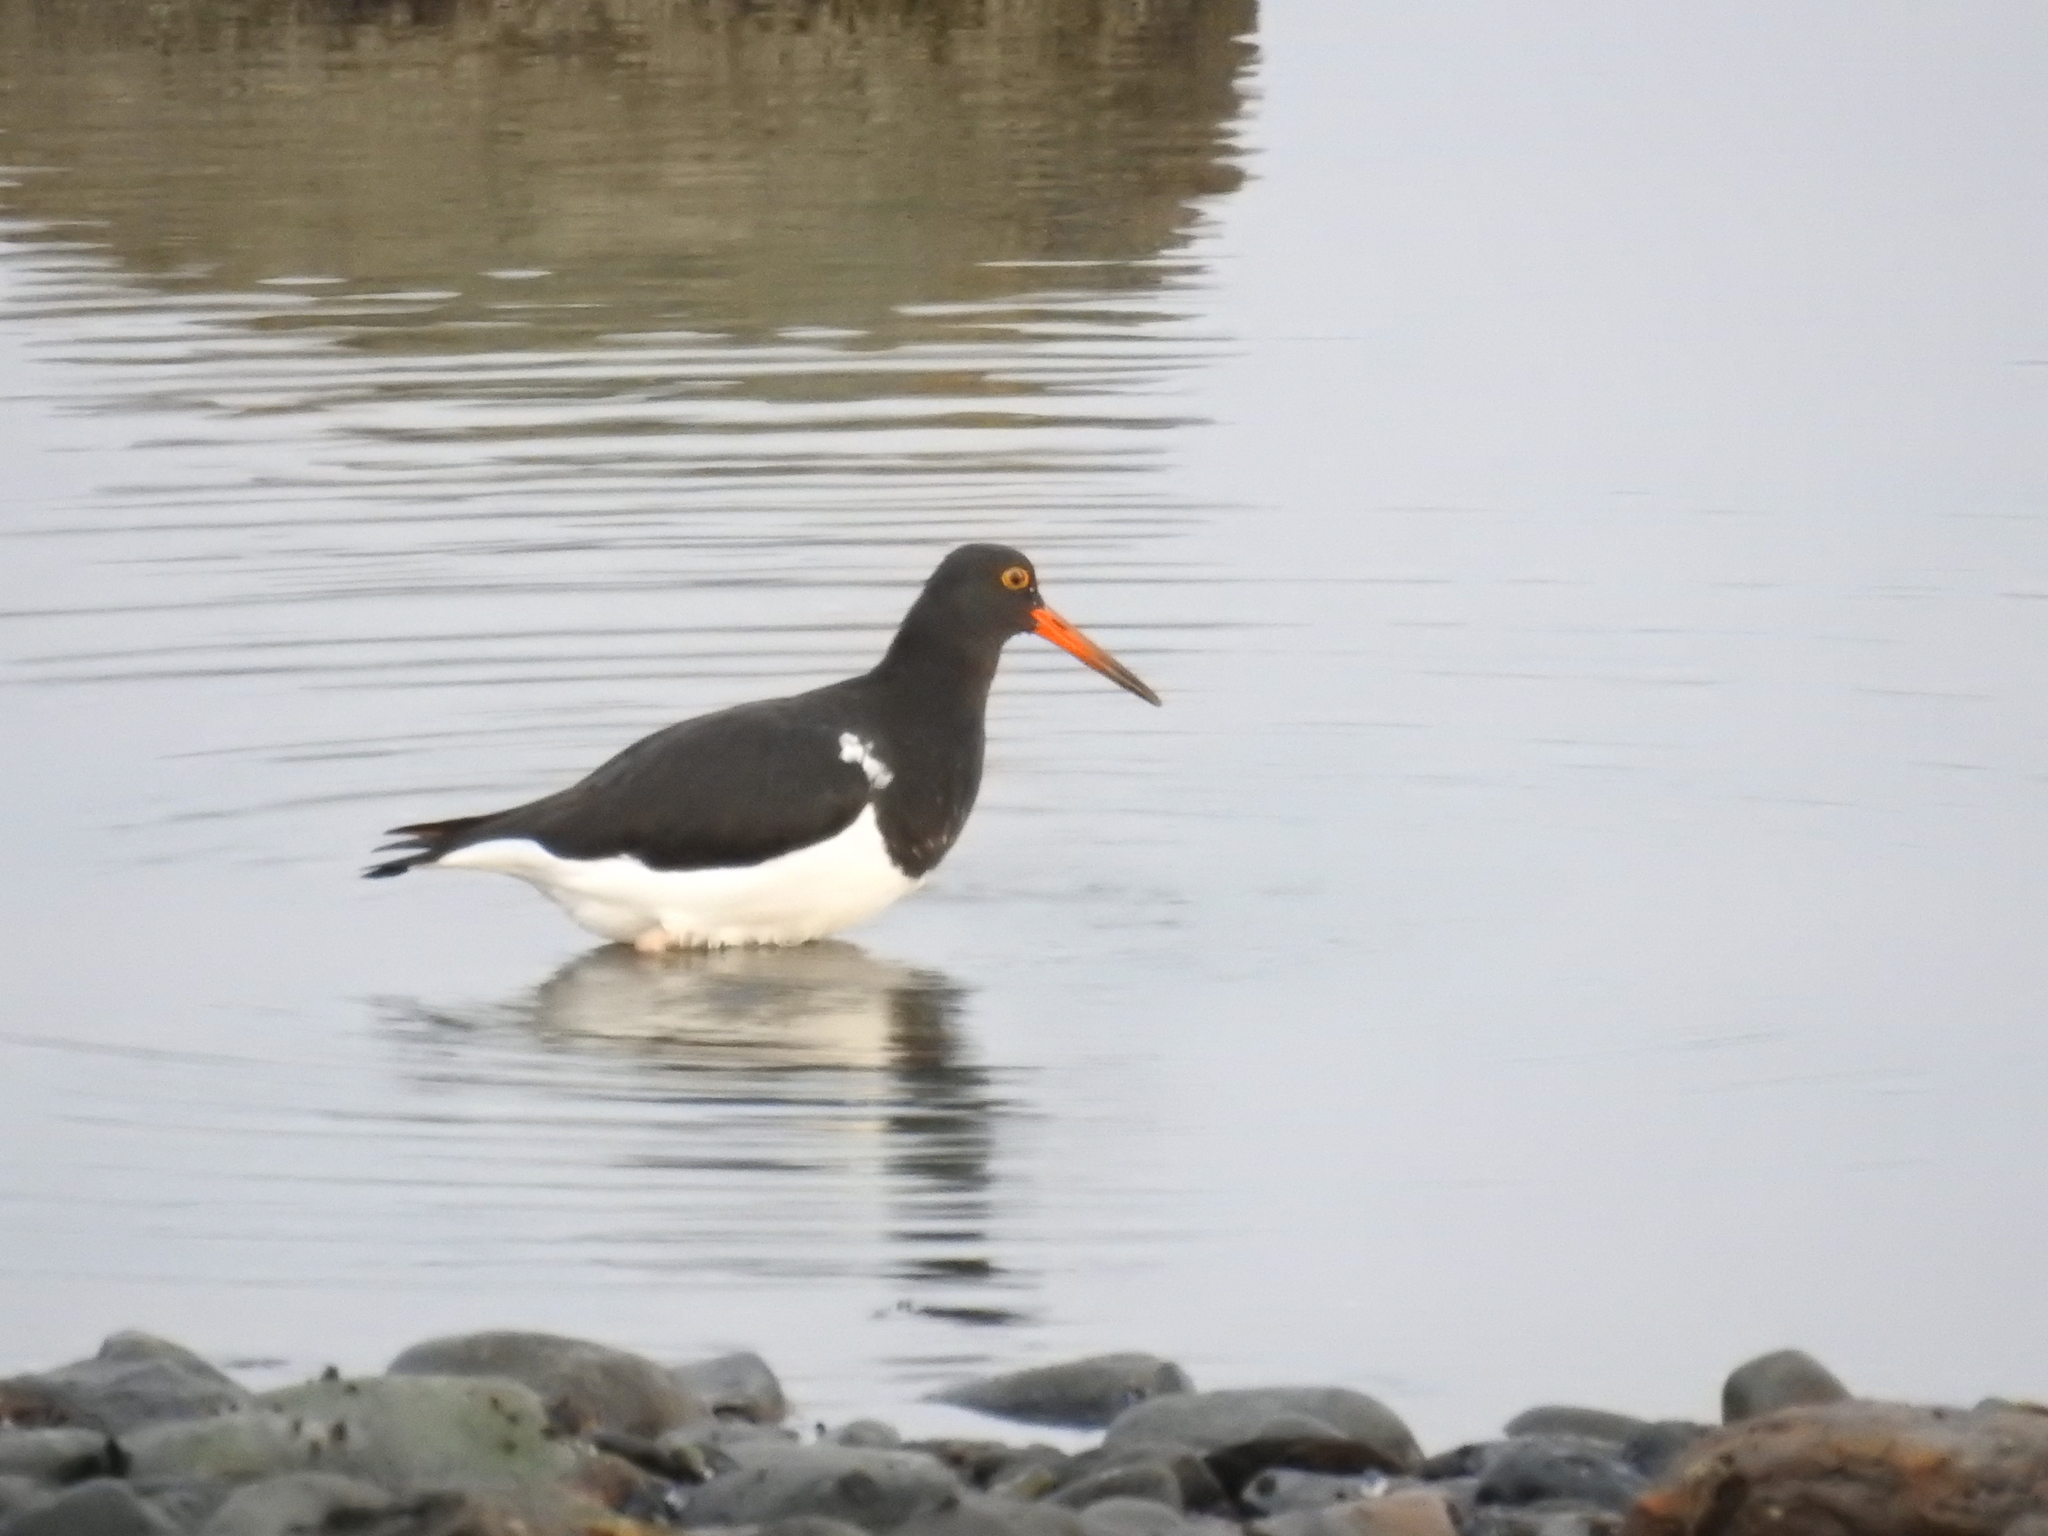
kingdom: Animalia
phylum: Chordata
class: Aves
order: Charadriiformes
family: Haematopodidae
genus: Haematopus
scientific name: Haematopus leucopodus
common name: Magellanic oystercatcher
